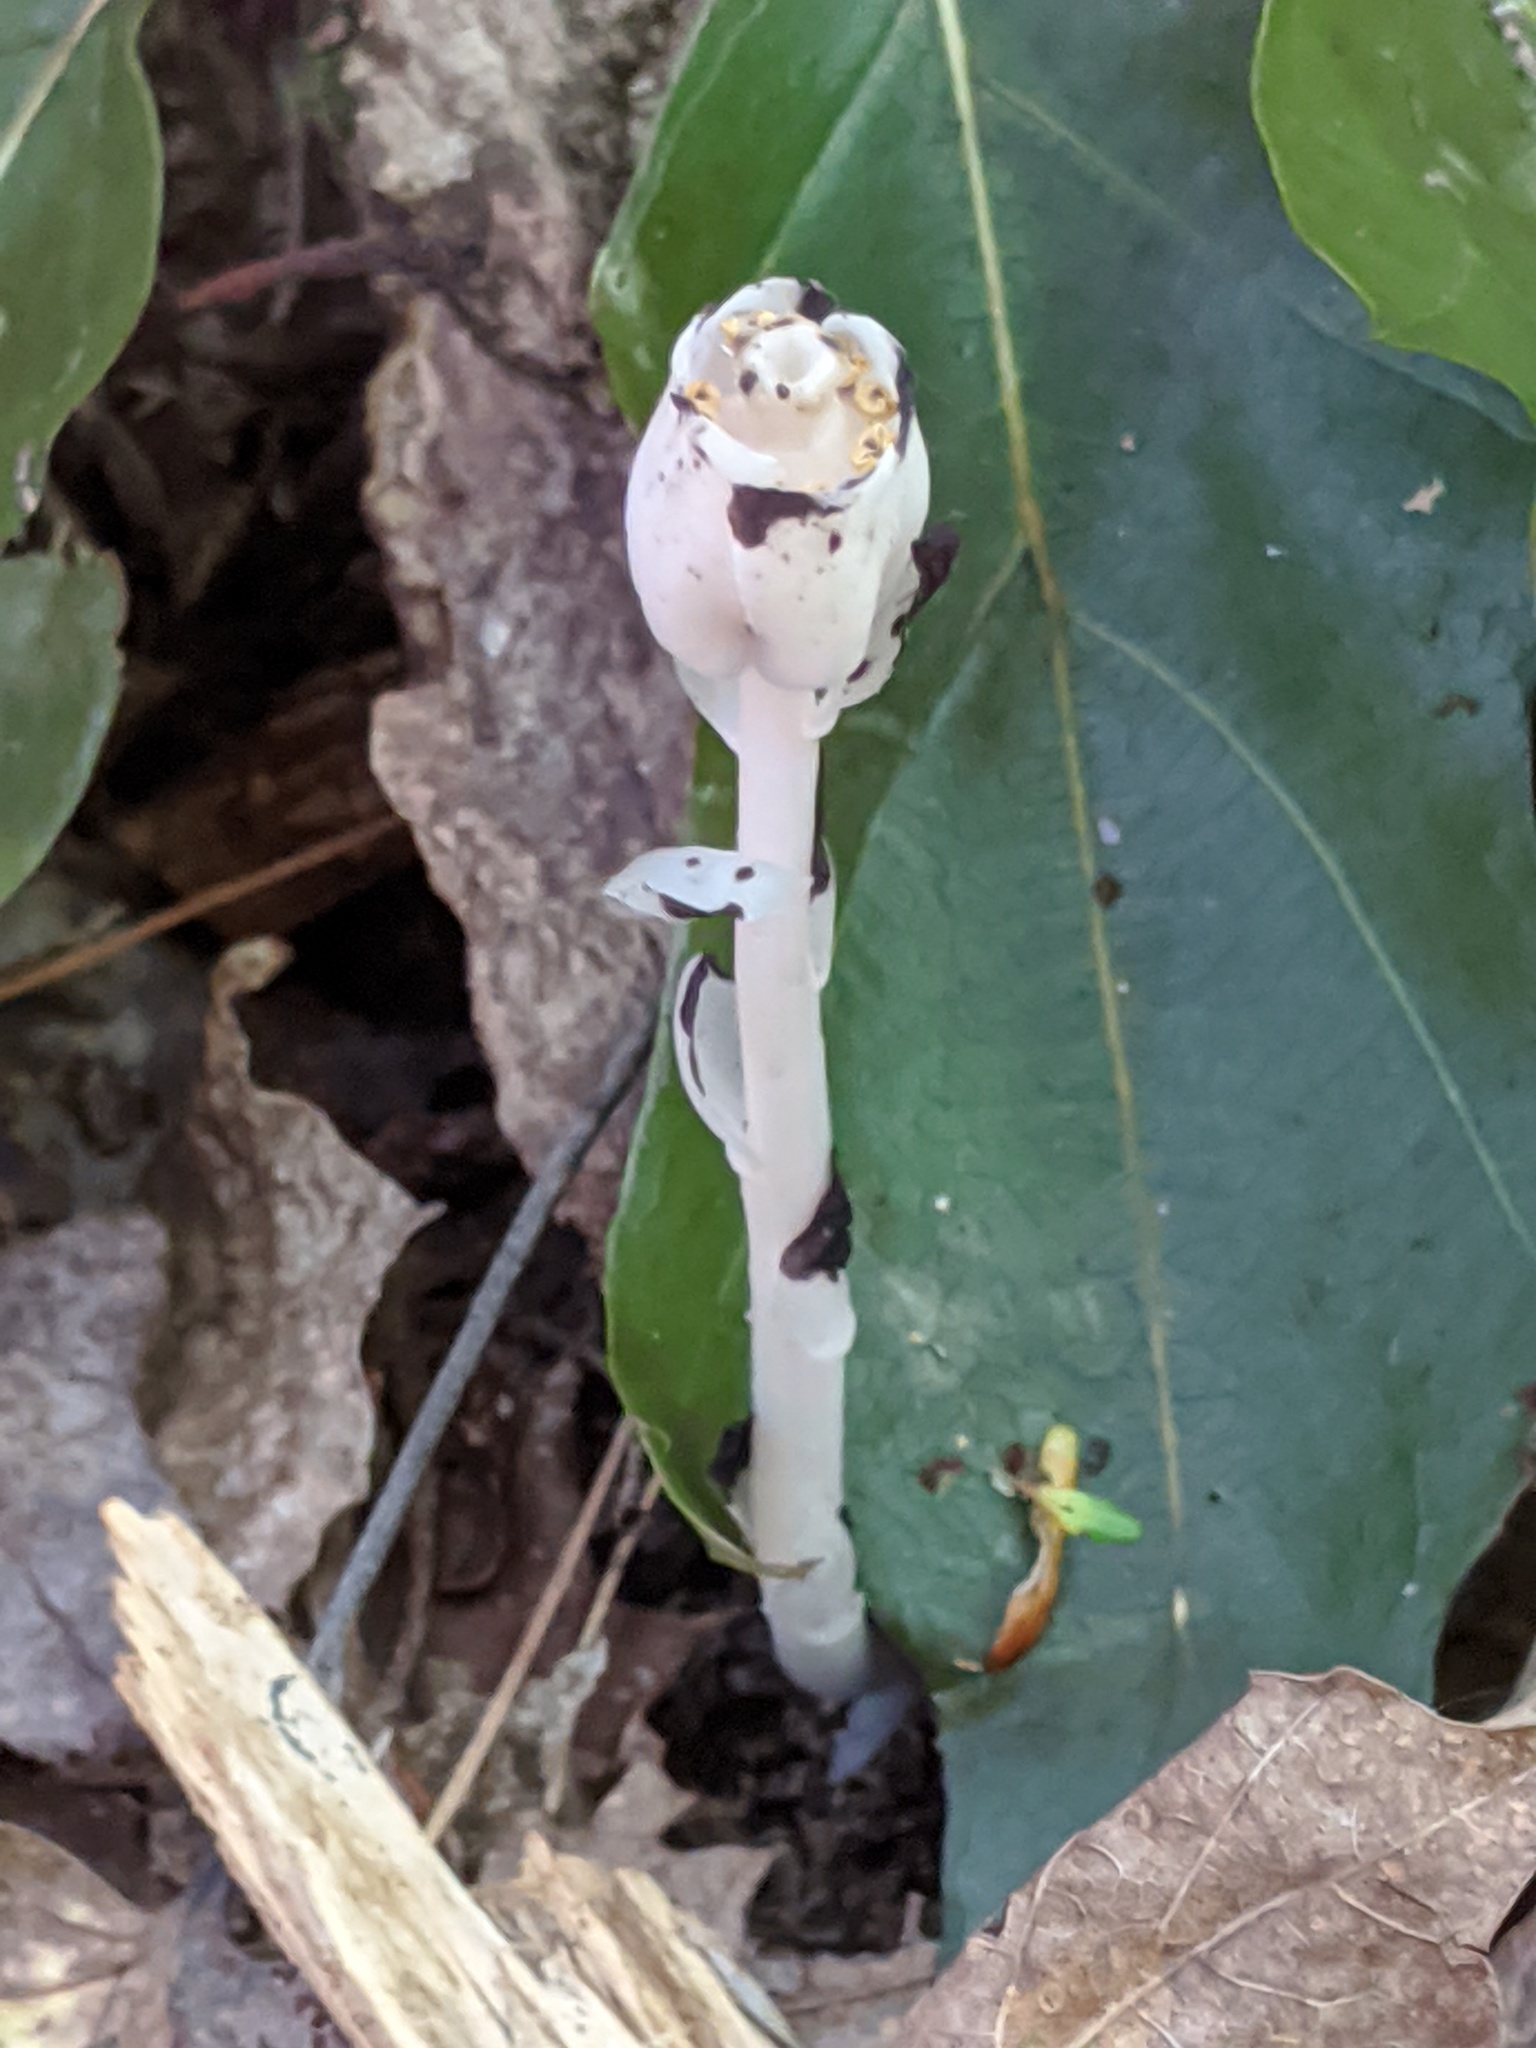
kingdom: Plantae
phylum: Tracheophyta
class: Magnoliopsida
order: Ericales
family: Ericaceae
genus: Monotropa
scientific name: Monotropa uniflora
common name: Convulsion root
